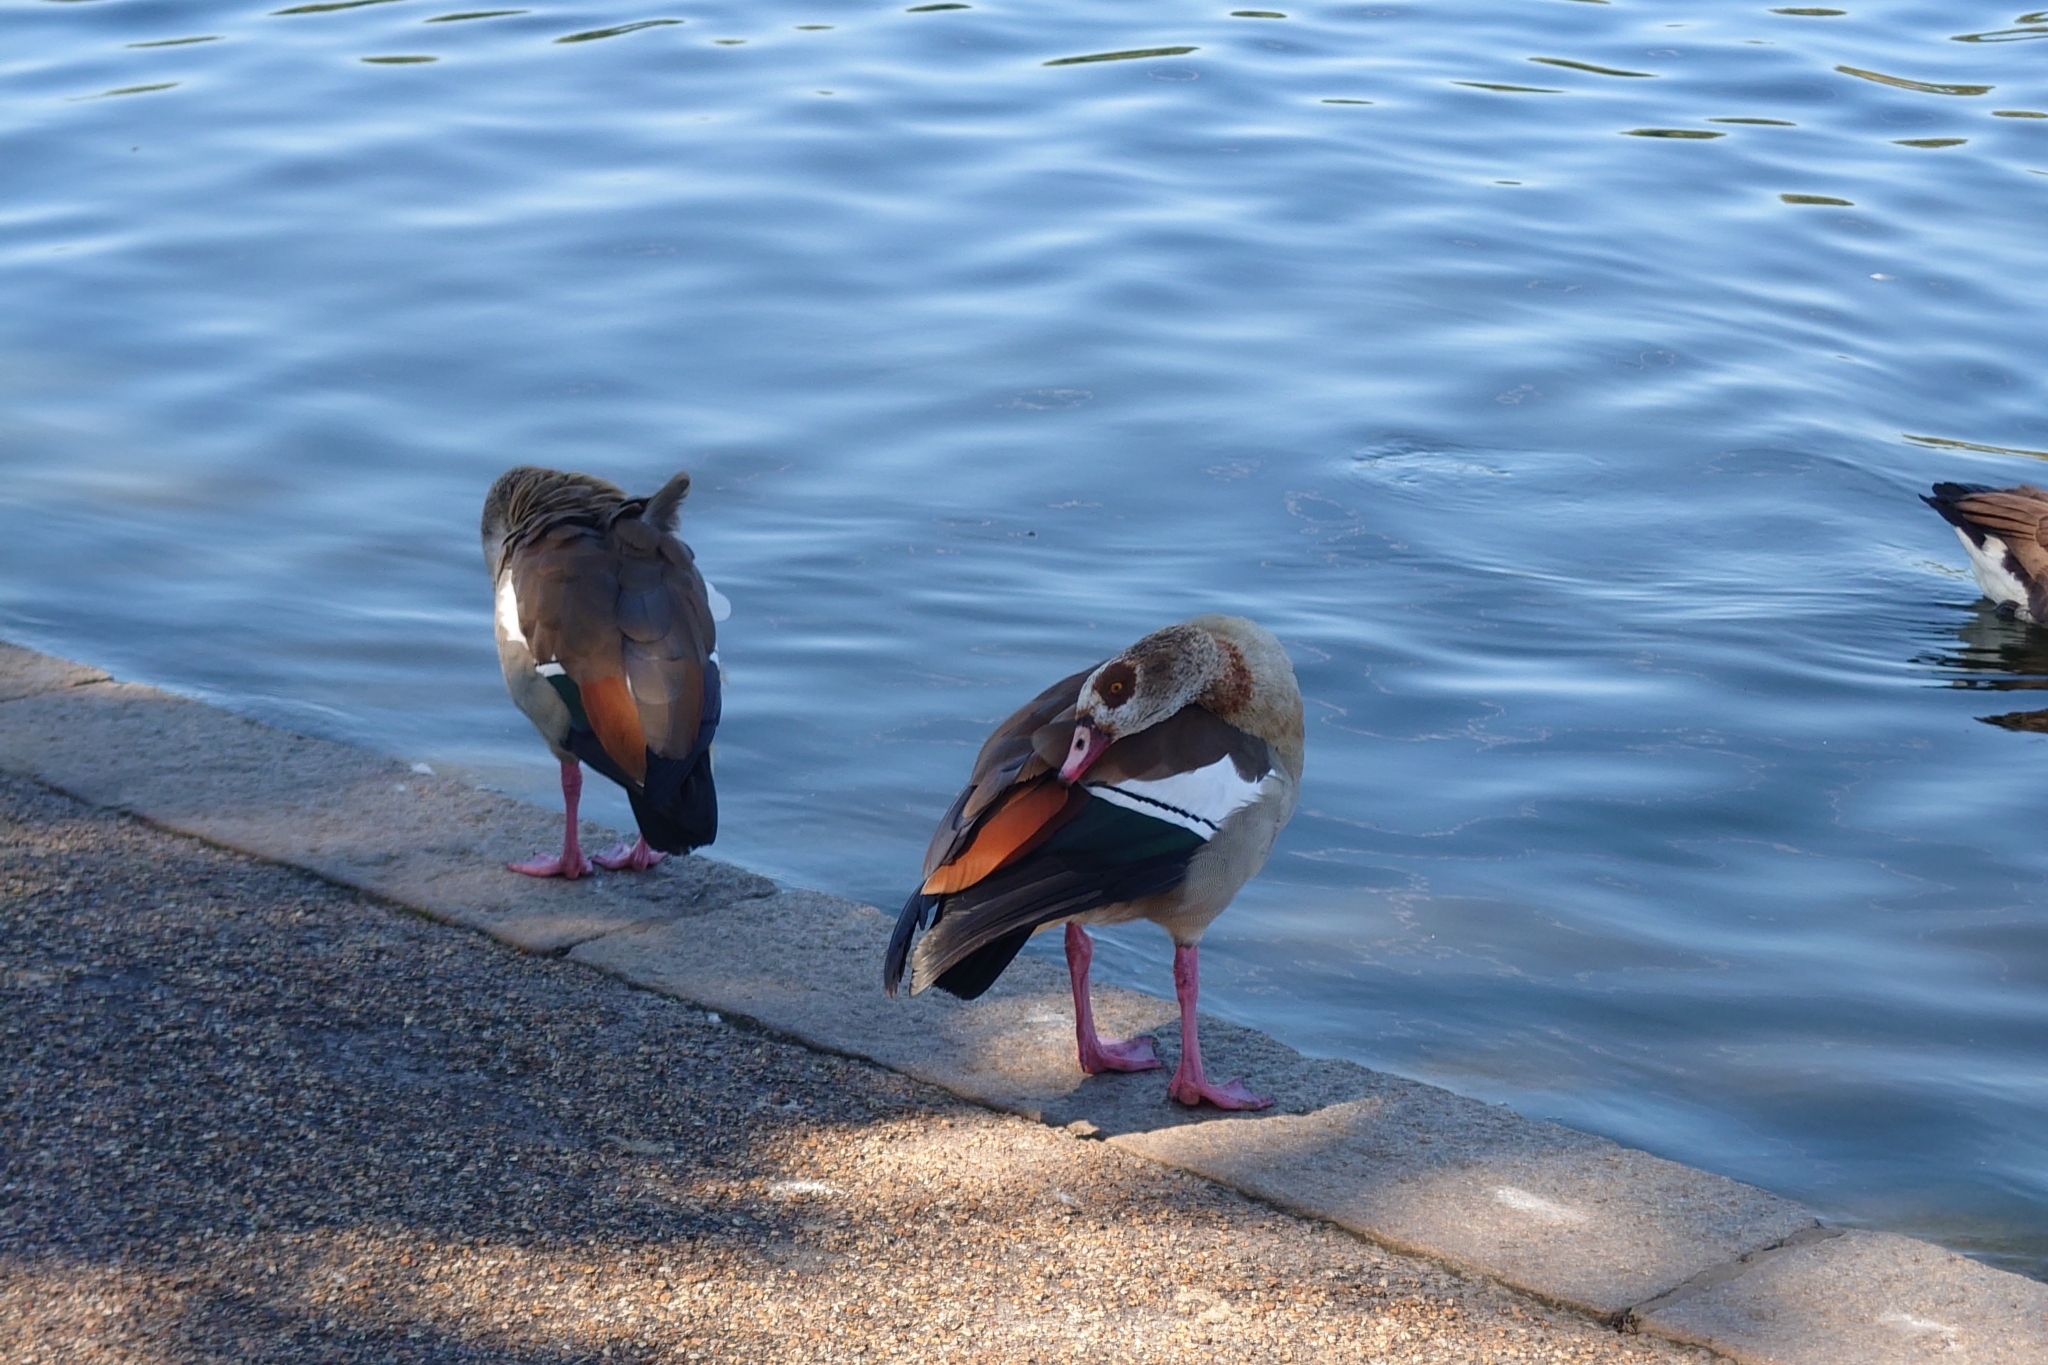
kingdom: Animalia
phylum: Chordata
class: Aves
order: Anseriformes
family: Anatidae
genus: Alopochen
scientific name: Alopochen aegyptiaca
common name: Egyptian goose
